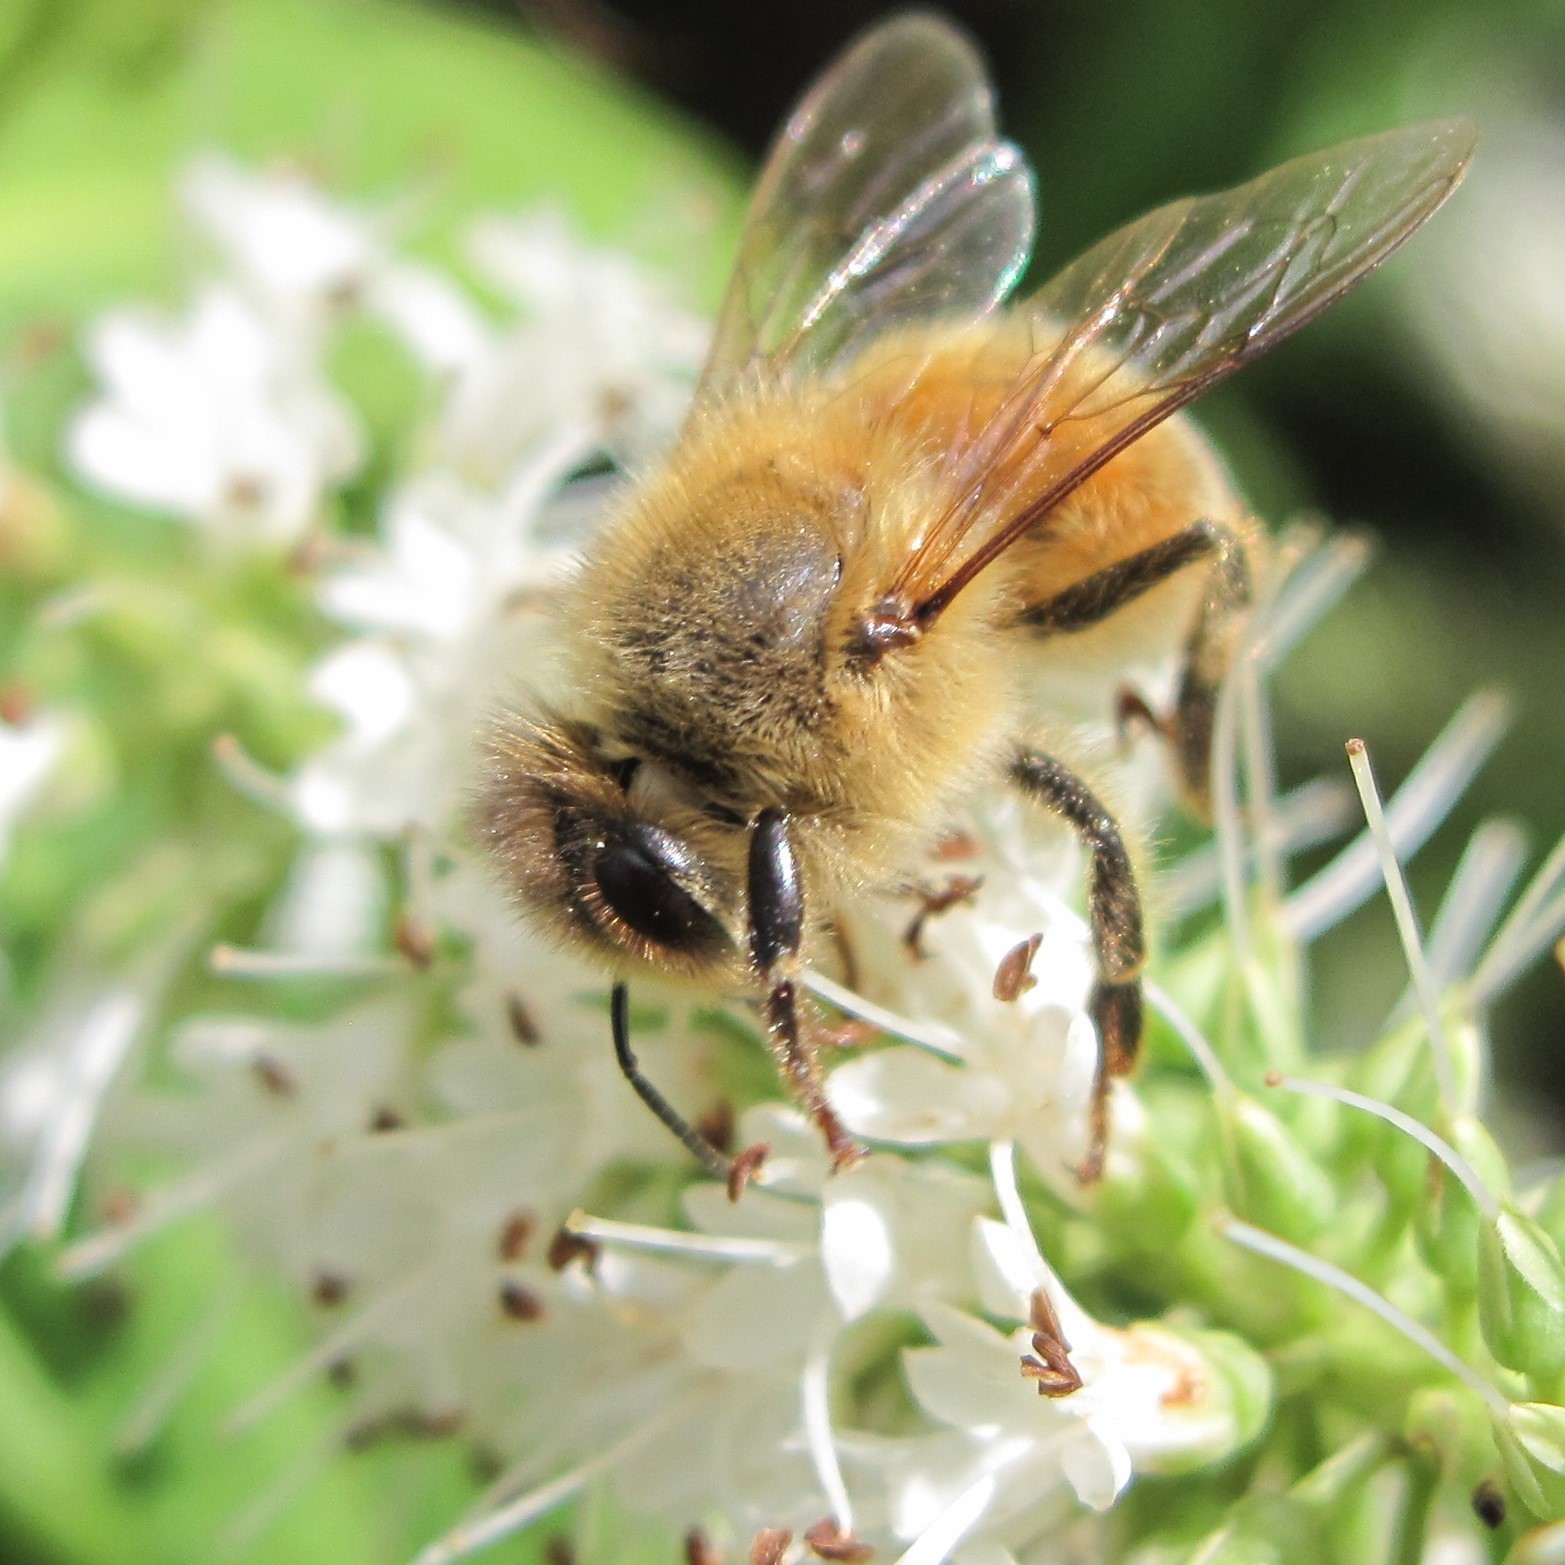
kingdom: Animalia
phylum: Arthropoda
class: Insecta
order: Hymenoptera
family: Apidae
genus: Apis
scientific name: Apis mellifera
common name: Honey bee
